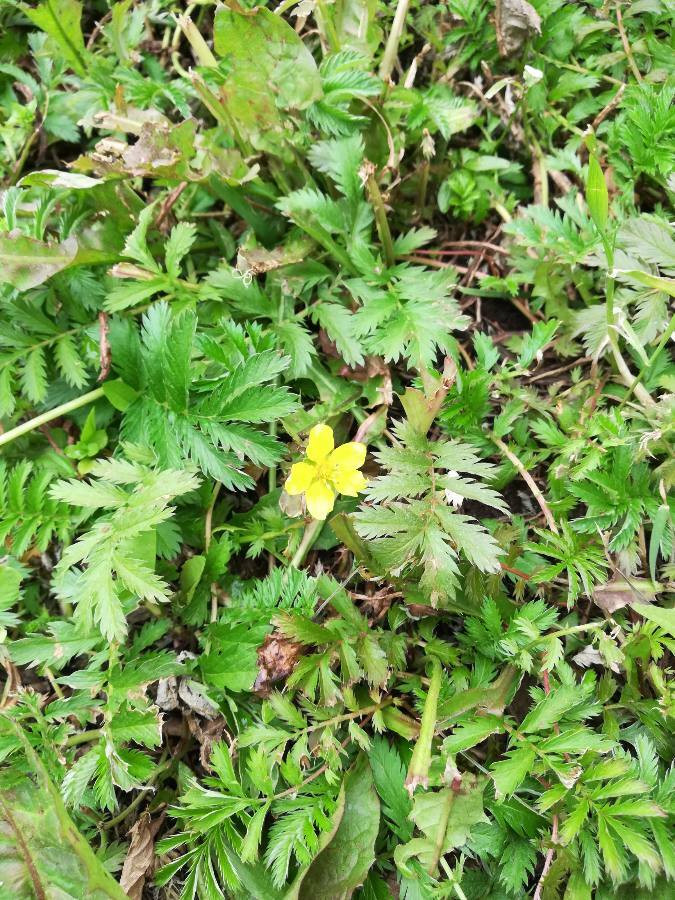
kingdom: Plantae
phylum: Tracheophyta
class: Magnoliopsida
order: Rosales
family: Rosaceae
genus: Argentina
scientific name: Argentina anserina
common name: Common silverweed
